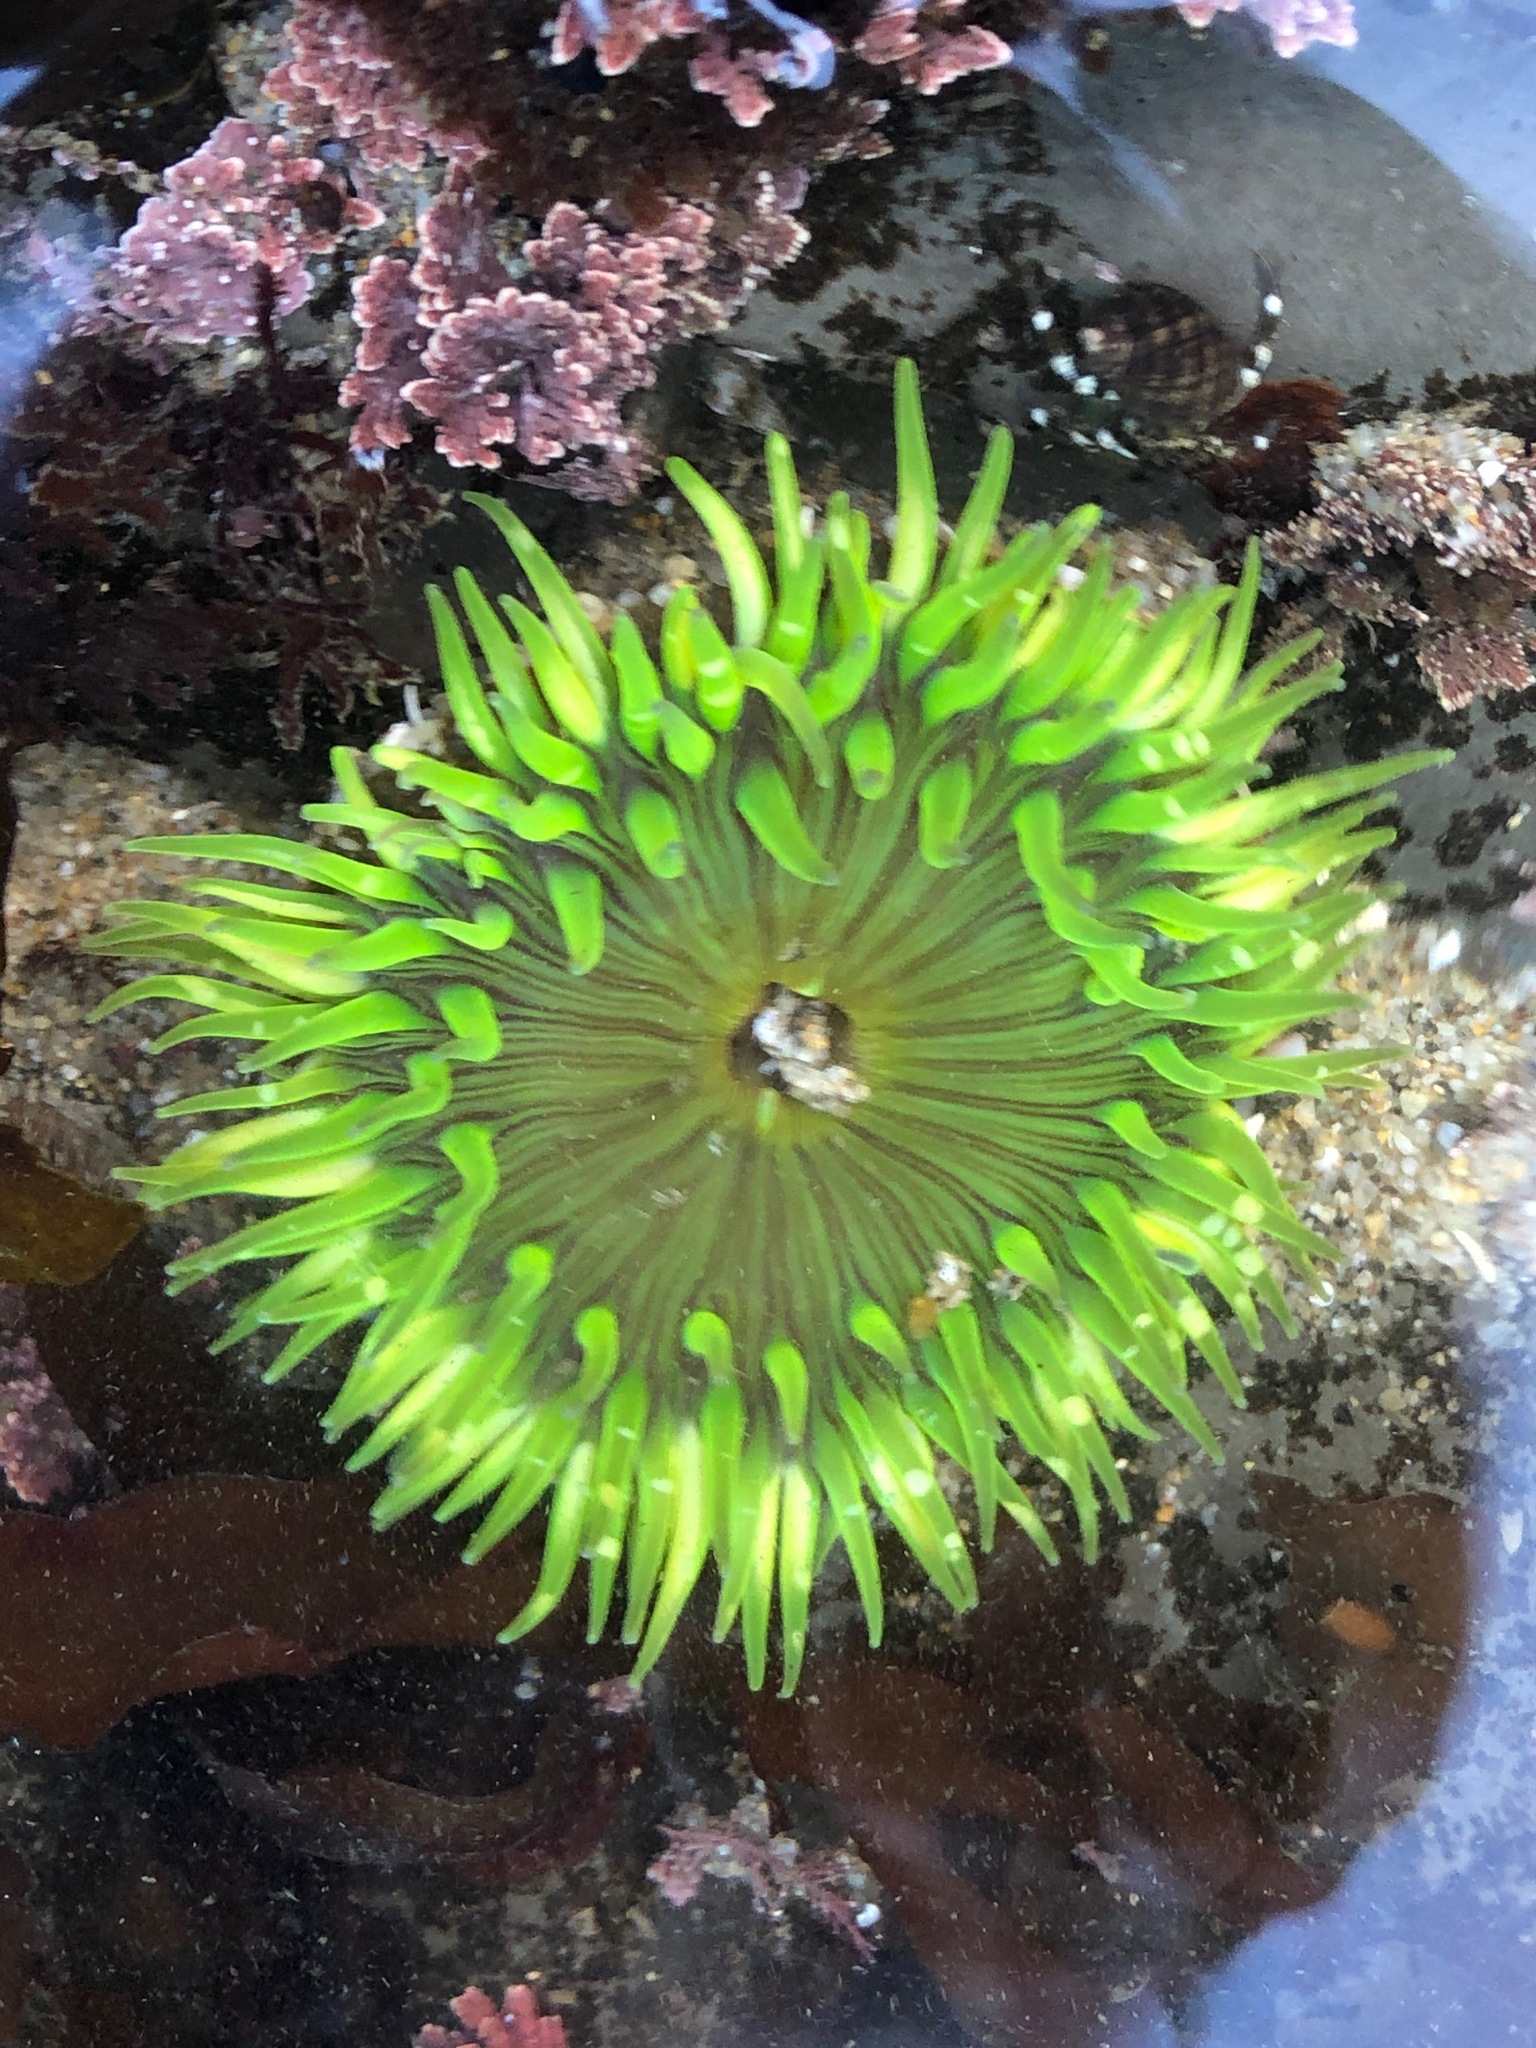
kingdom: Animalia
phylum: Cnidaria
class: Anthozoa
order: Actiniaria
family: Actiniidae
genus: Anthopleura
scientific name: Anthopleura sola
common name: Sun anemone
